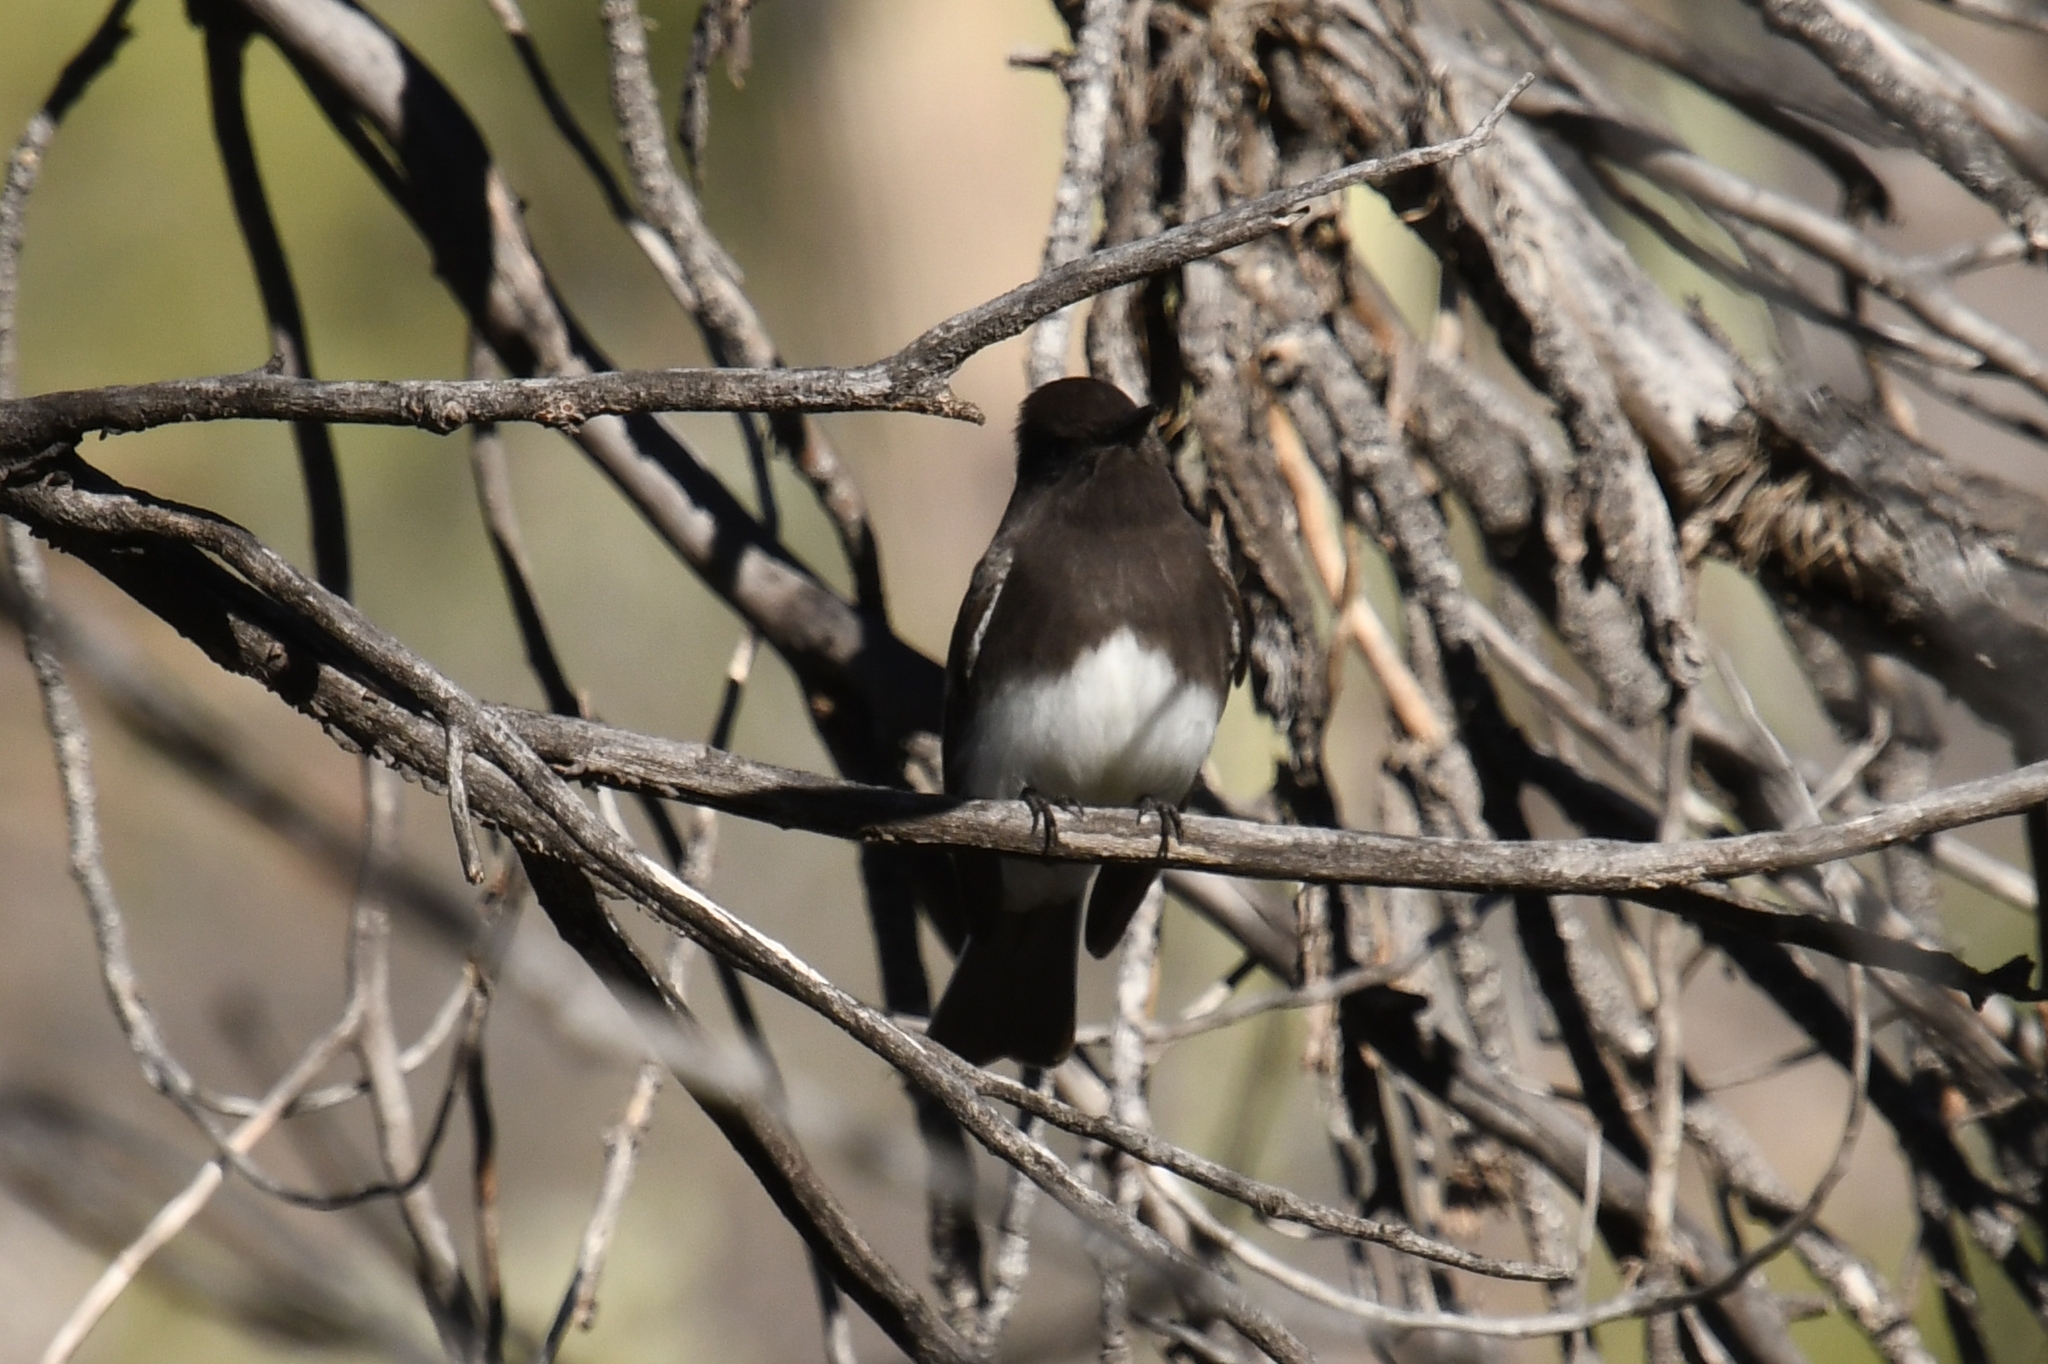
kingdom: Animalia
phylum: Chordata
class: Aves
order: Passeriformes
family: Tyrannidae
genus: Sayornis
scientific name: Sayornis nigricans
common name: Black phoebe
